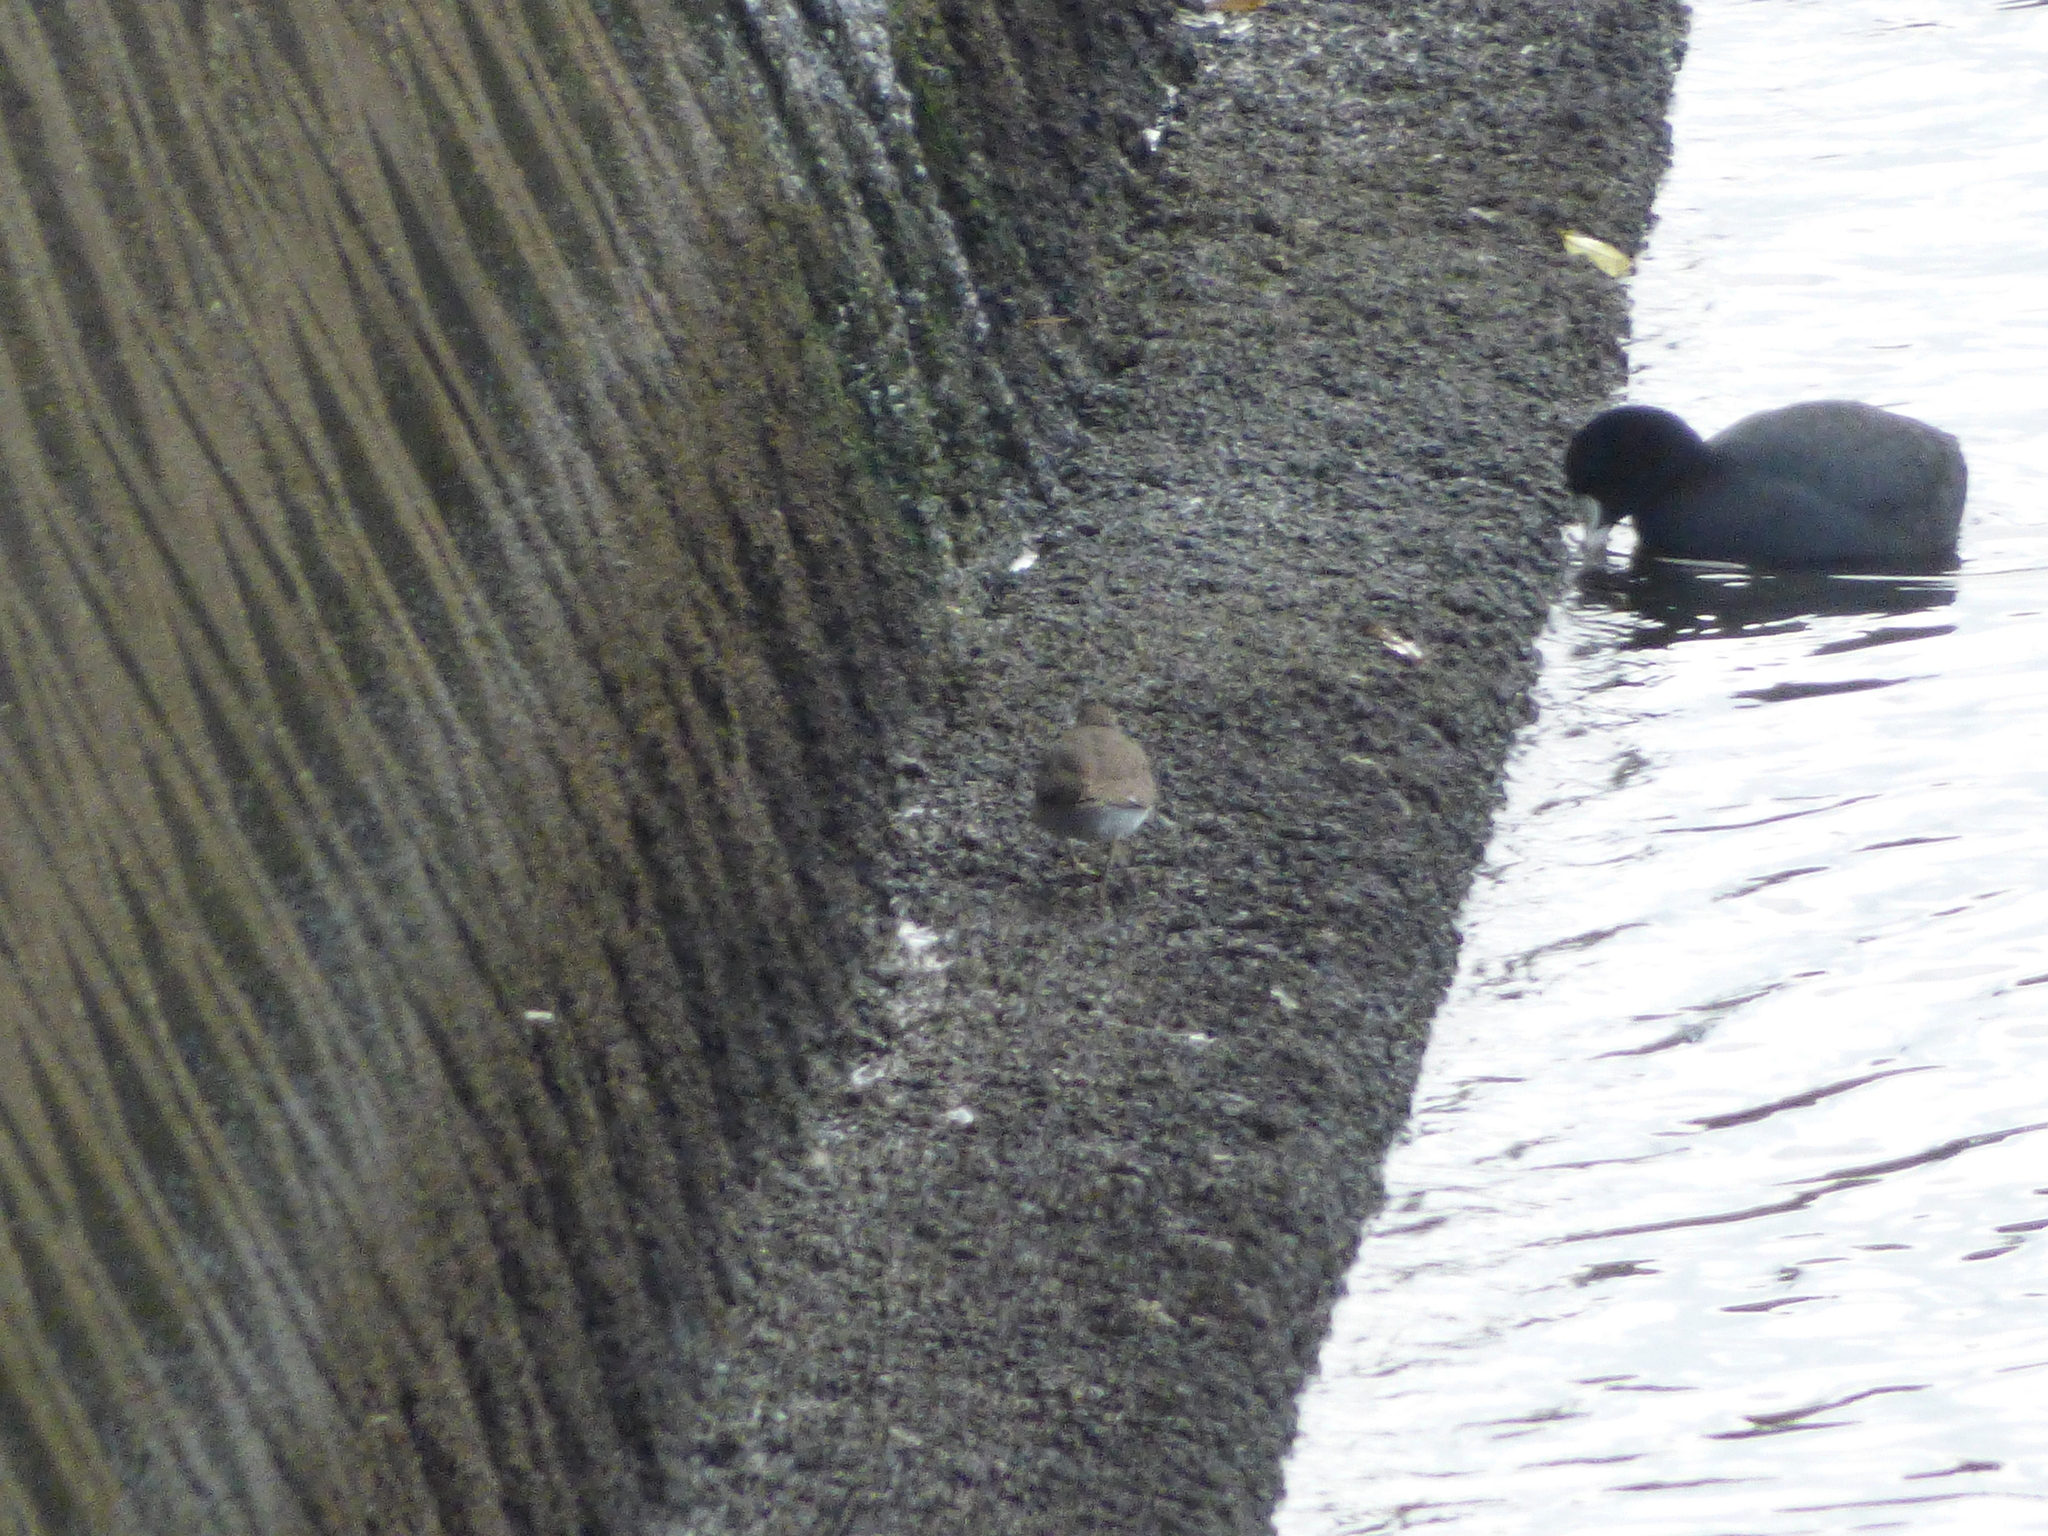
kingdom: Animalia
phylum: Chordata
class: Aves
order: Charadriiformes
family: Scolopacidae
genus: Actitis
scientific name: Actitis hypoleucos
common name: Common sandpiper
